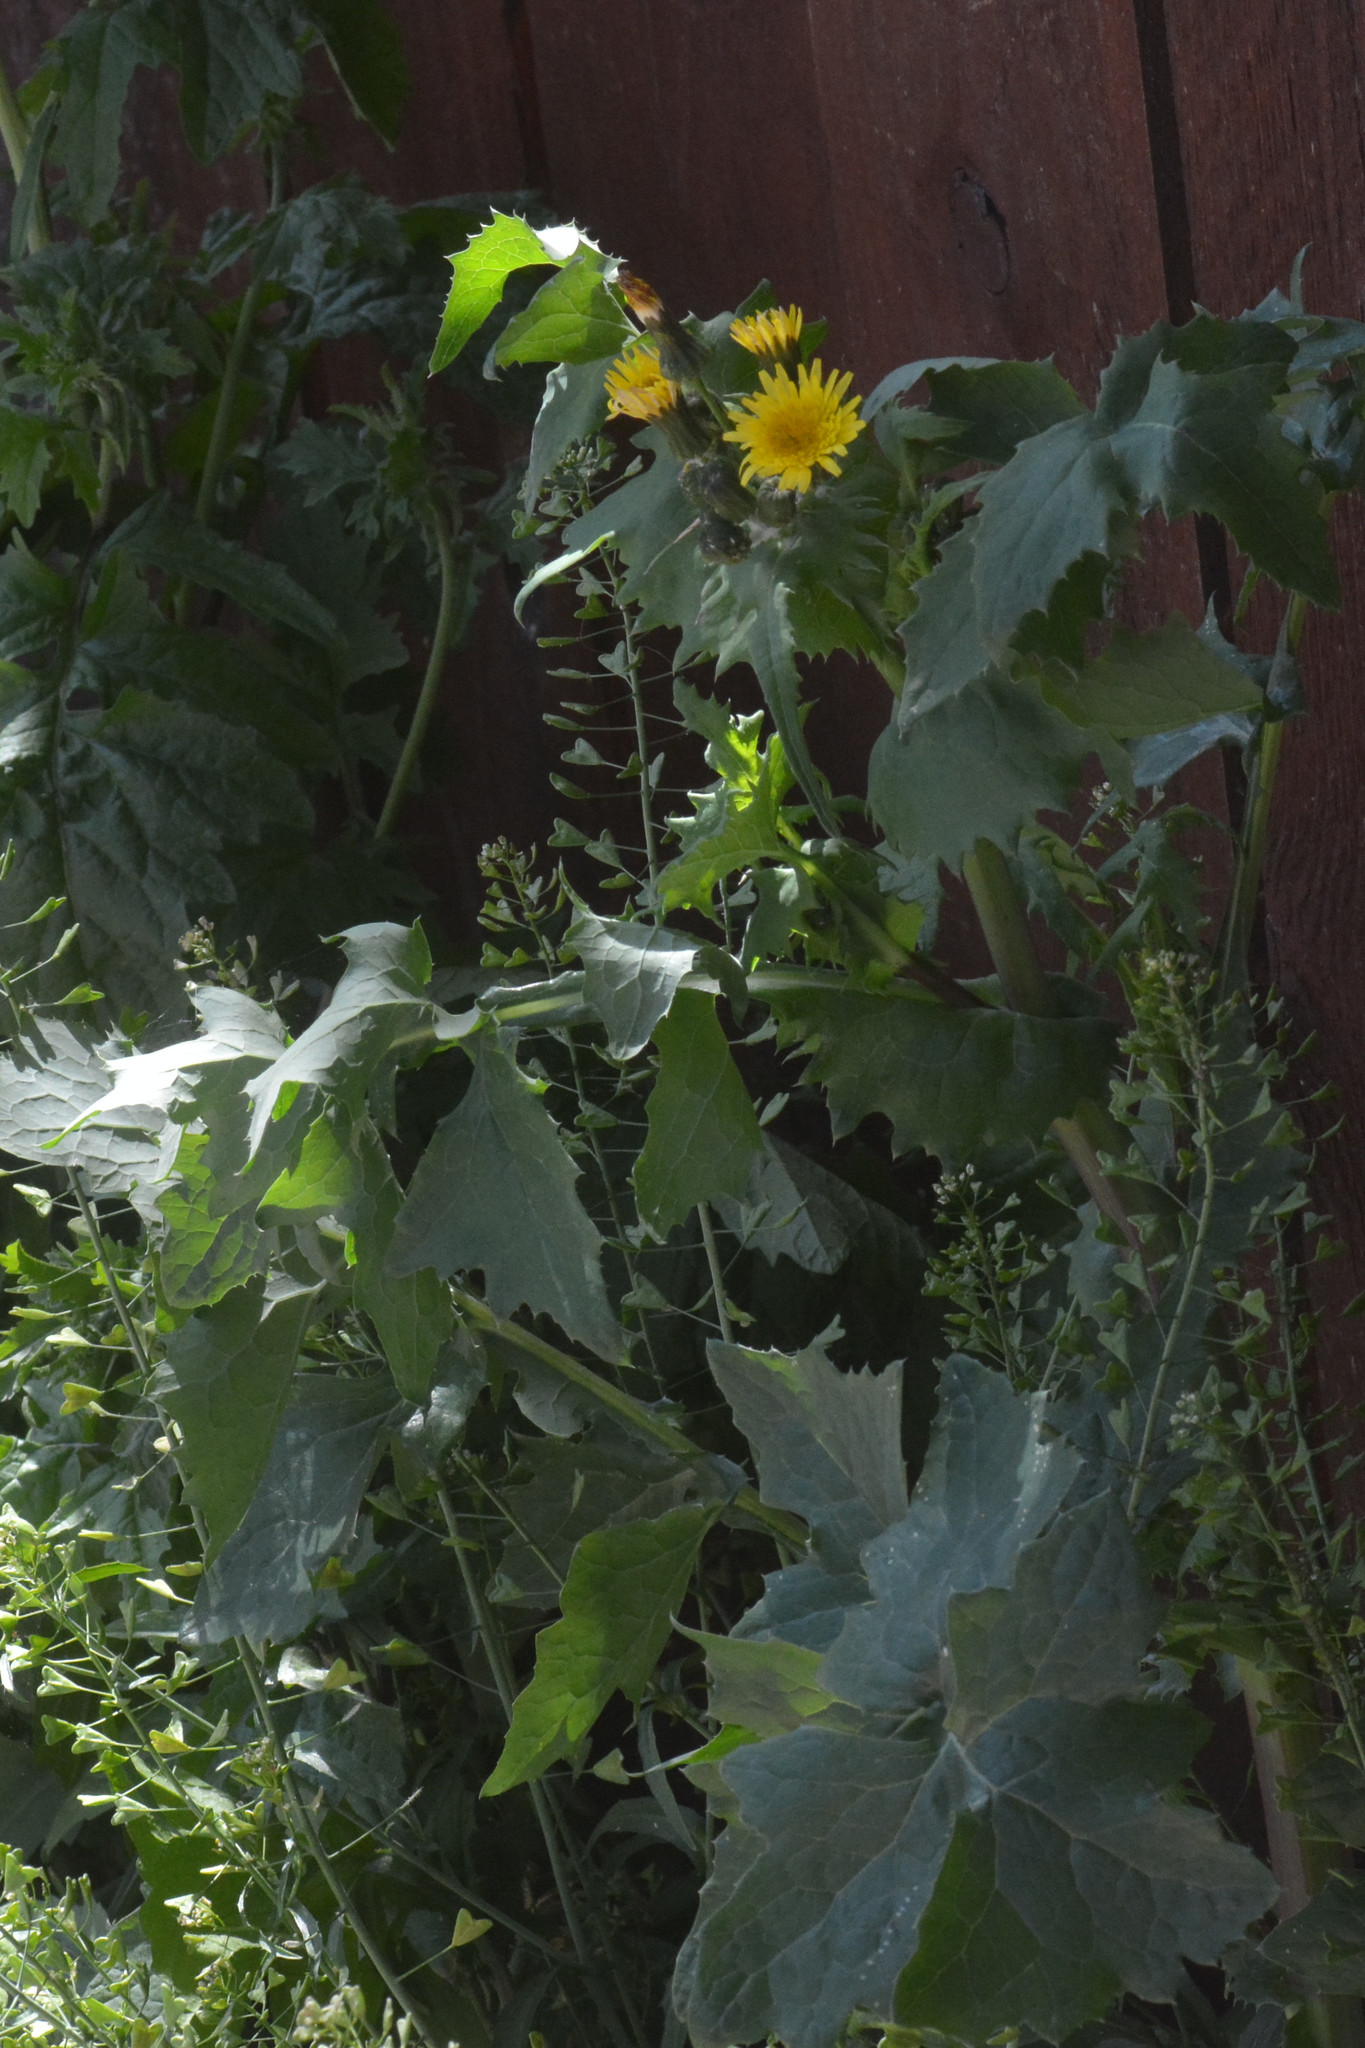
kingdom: Plantae
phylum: Tracheophyta
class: Magnoliopsida
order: Asterales
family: Asteraceae
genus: Sonchus
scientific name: Sonchus oleraceus
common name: Common sowthistle
